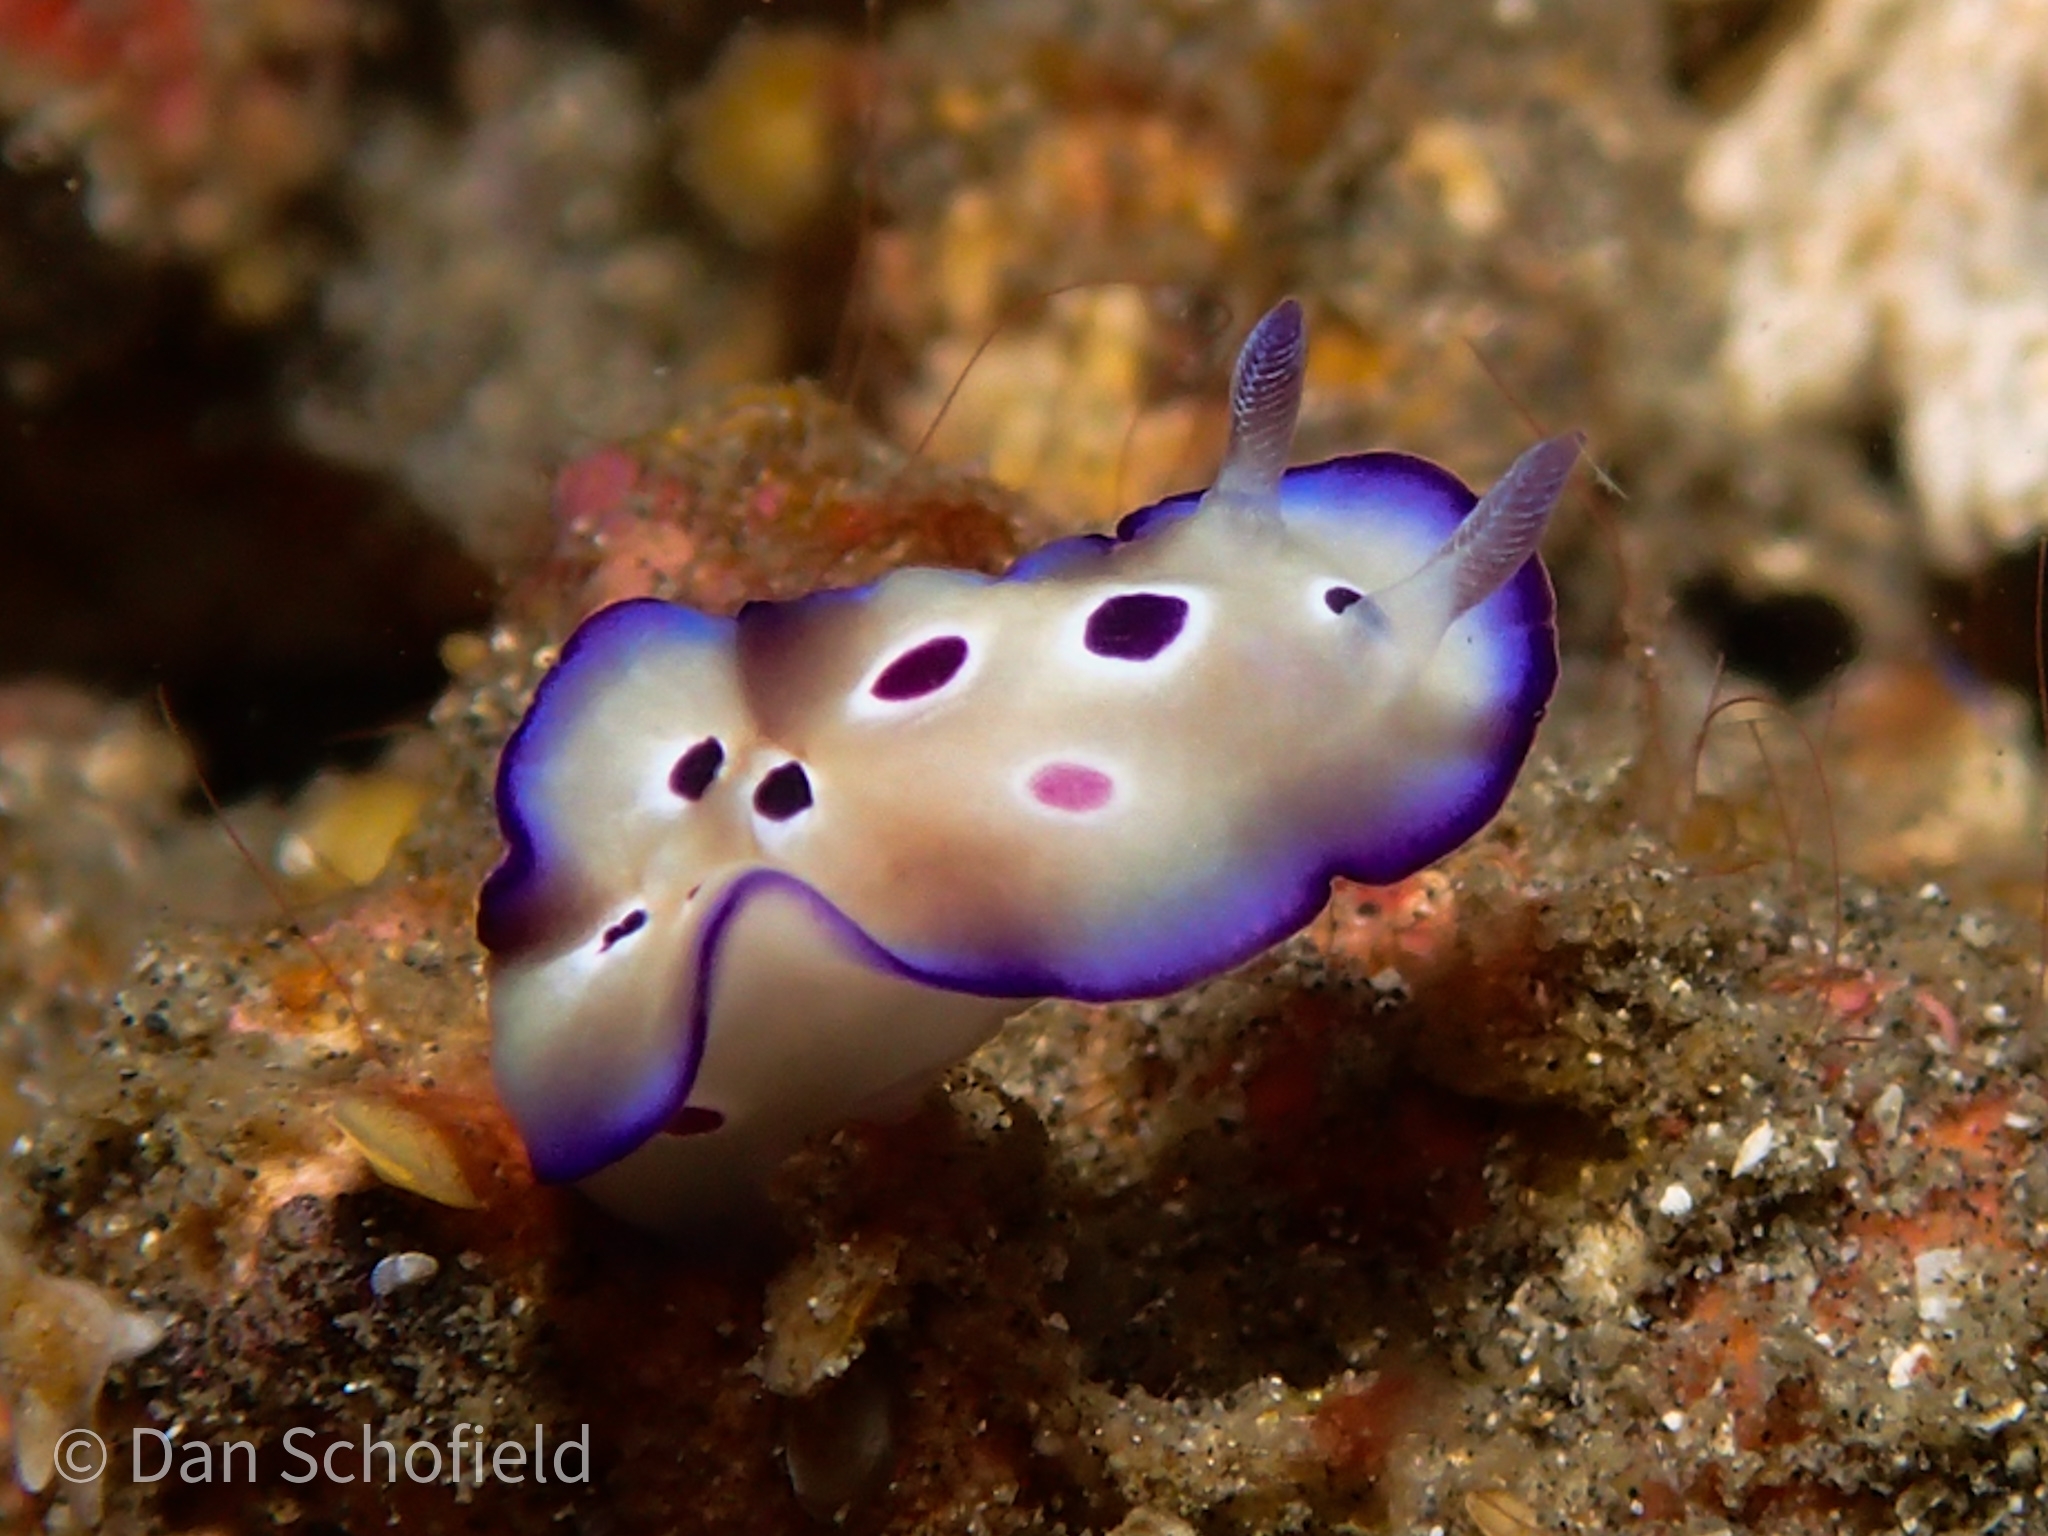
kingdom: Animalia
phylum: Mollusca
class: Gastropoda
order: Nudibranchia
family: Chromodorididae
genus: Hypselodoris
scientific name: Hypselodoris tryoni
